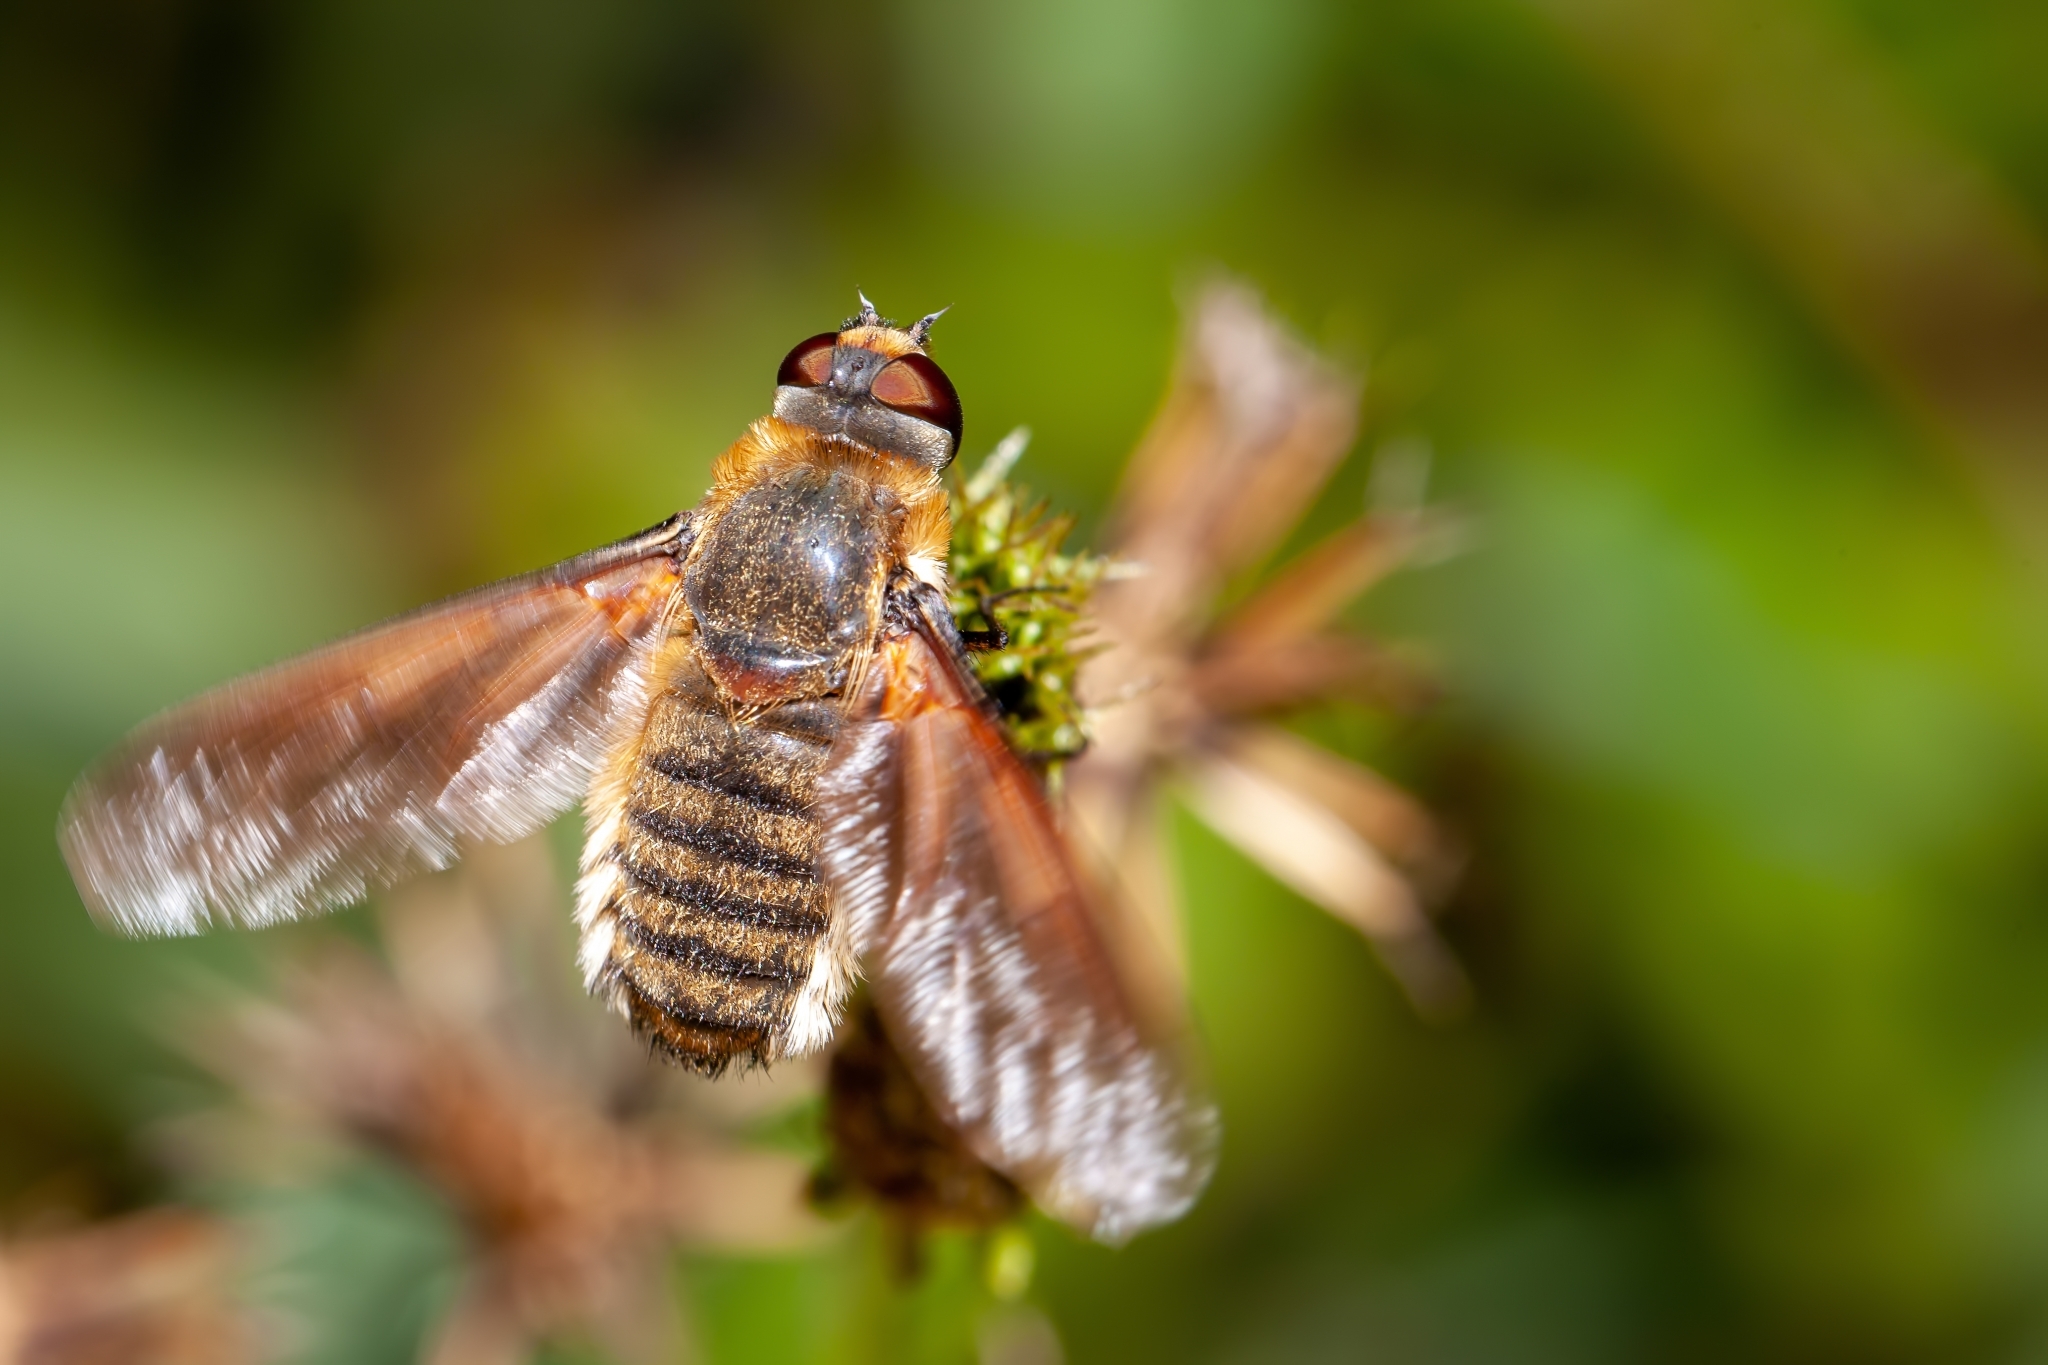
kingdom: Animalia
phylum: Arthropoda
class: Insecta
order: Diptera
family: Bombyliidae
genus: Poecilanthrax
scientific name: Poecilanthrax lucifer
